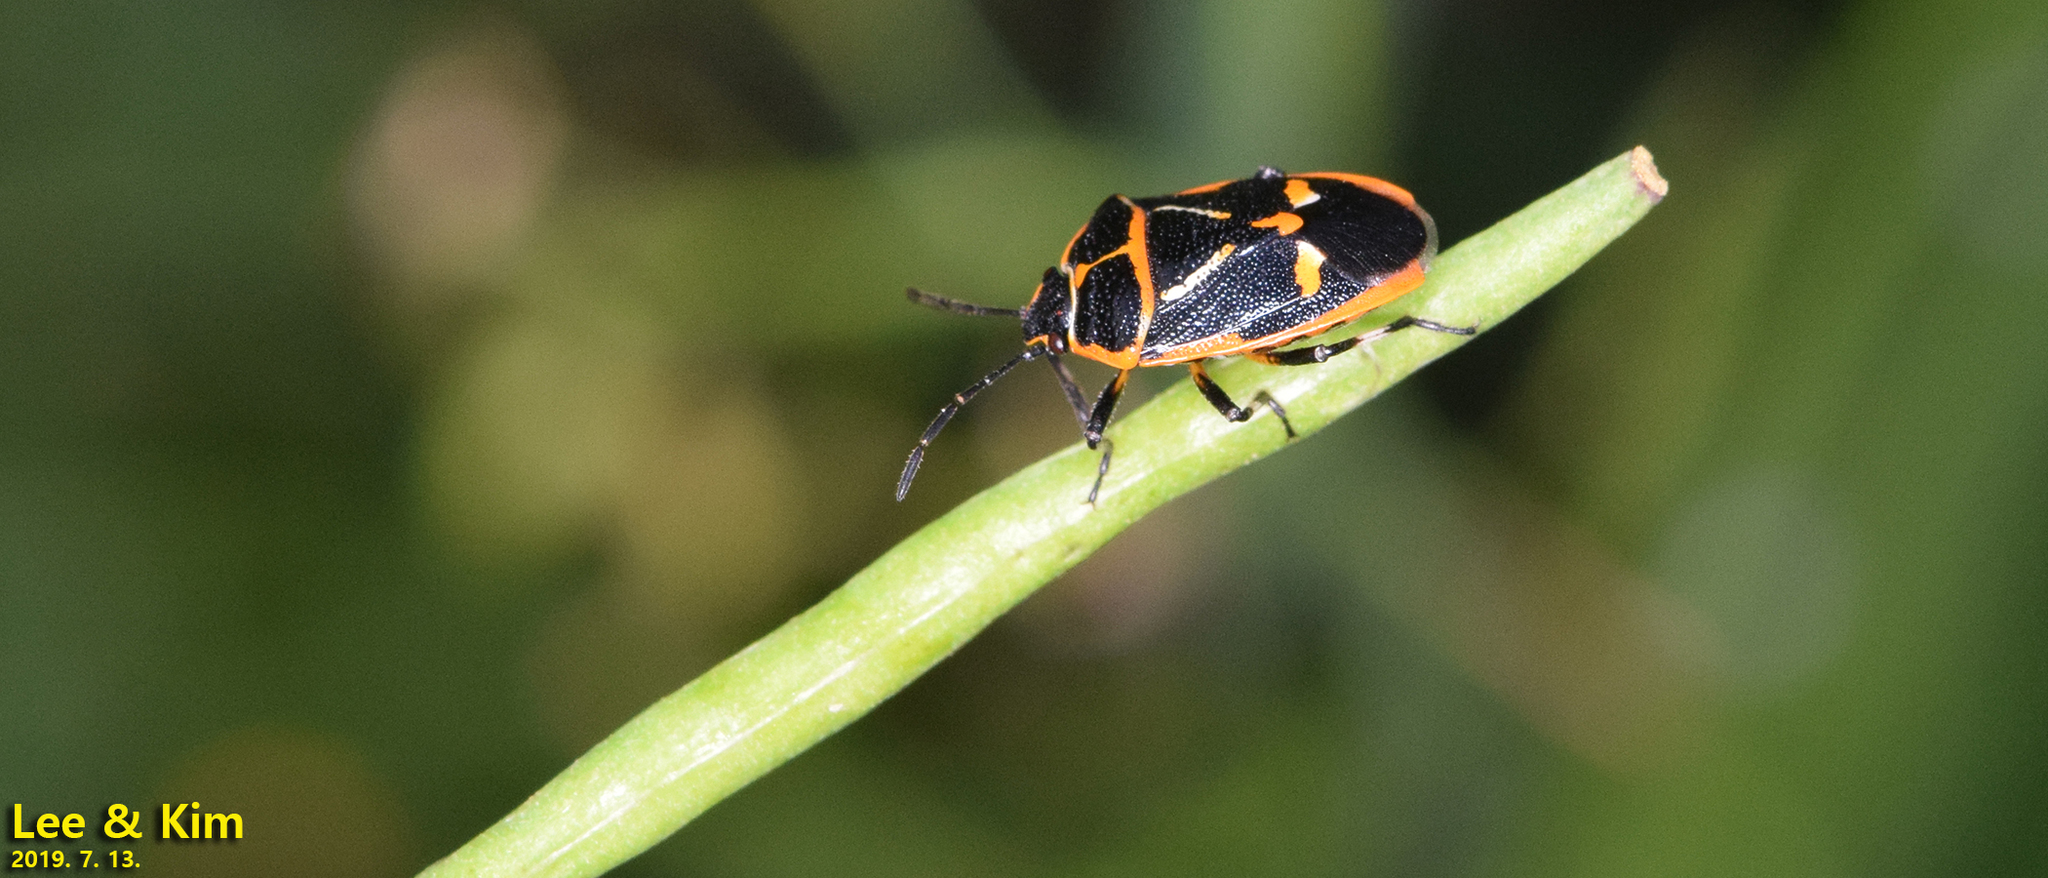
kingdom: Animalia
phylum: Arthropoda
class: Insecta
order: Hemiptera
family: Pentatomidae
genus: Eurydema
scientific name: Eurydema gebleri
